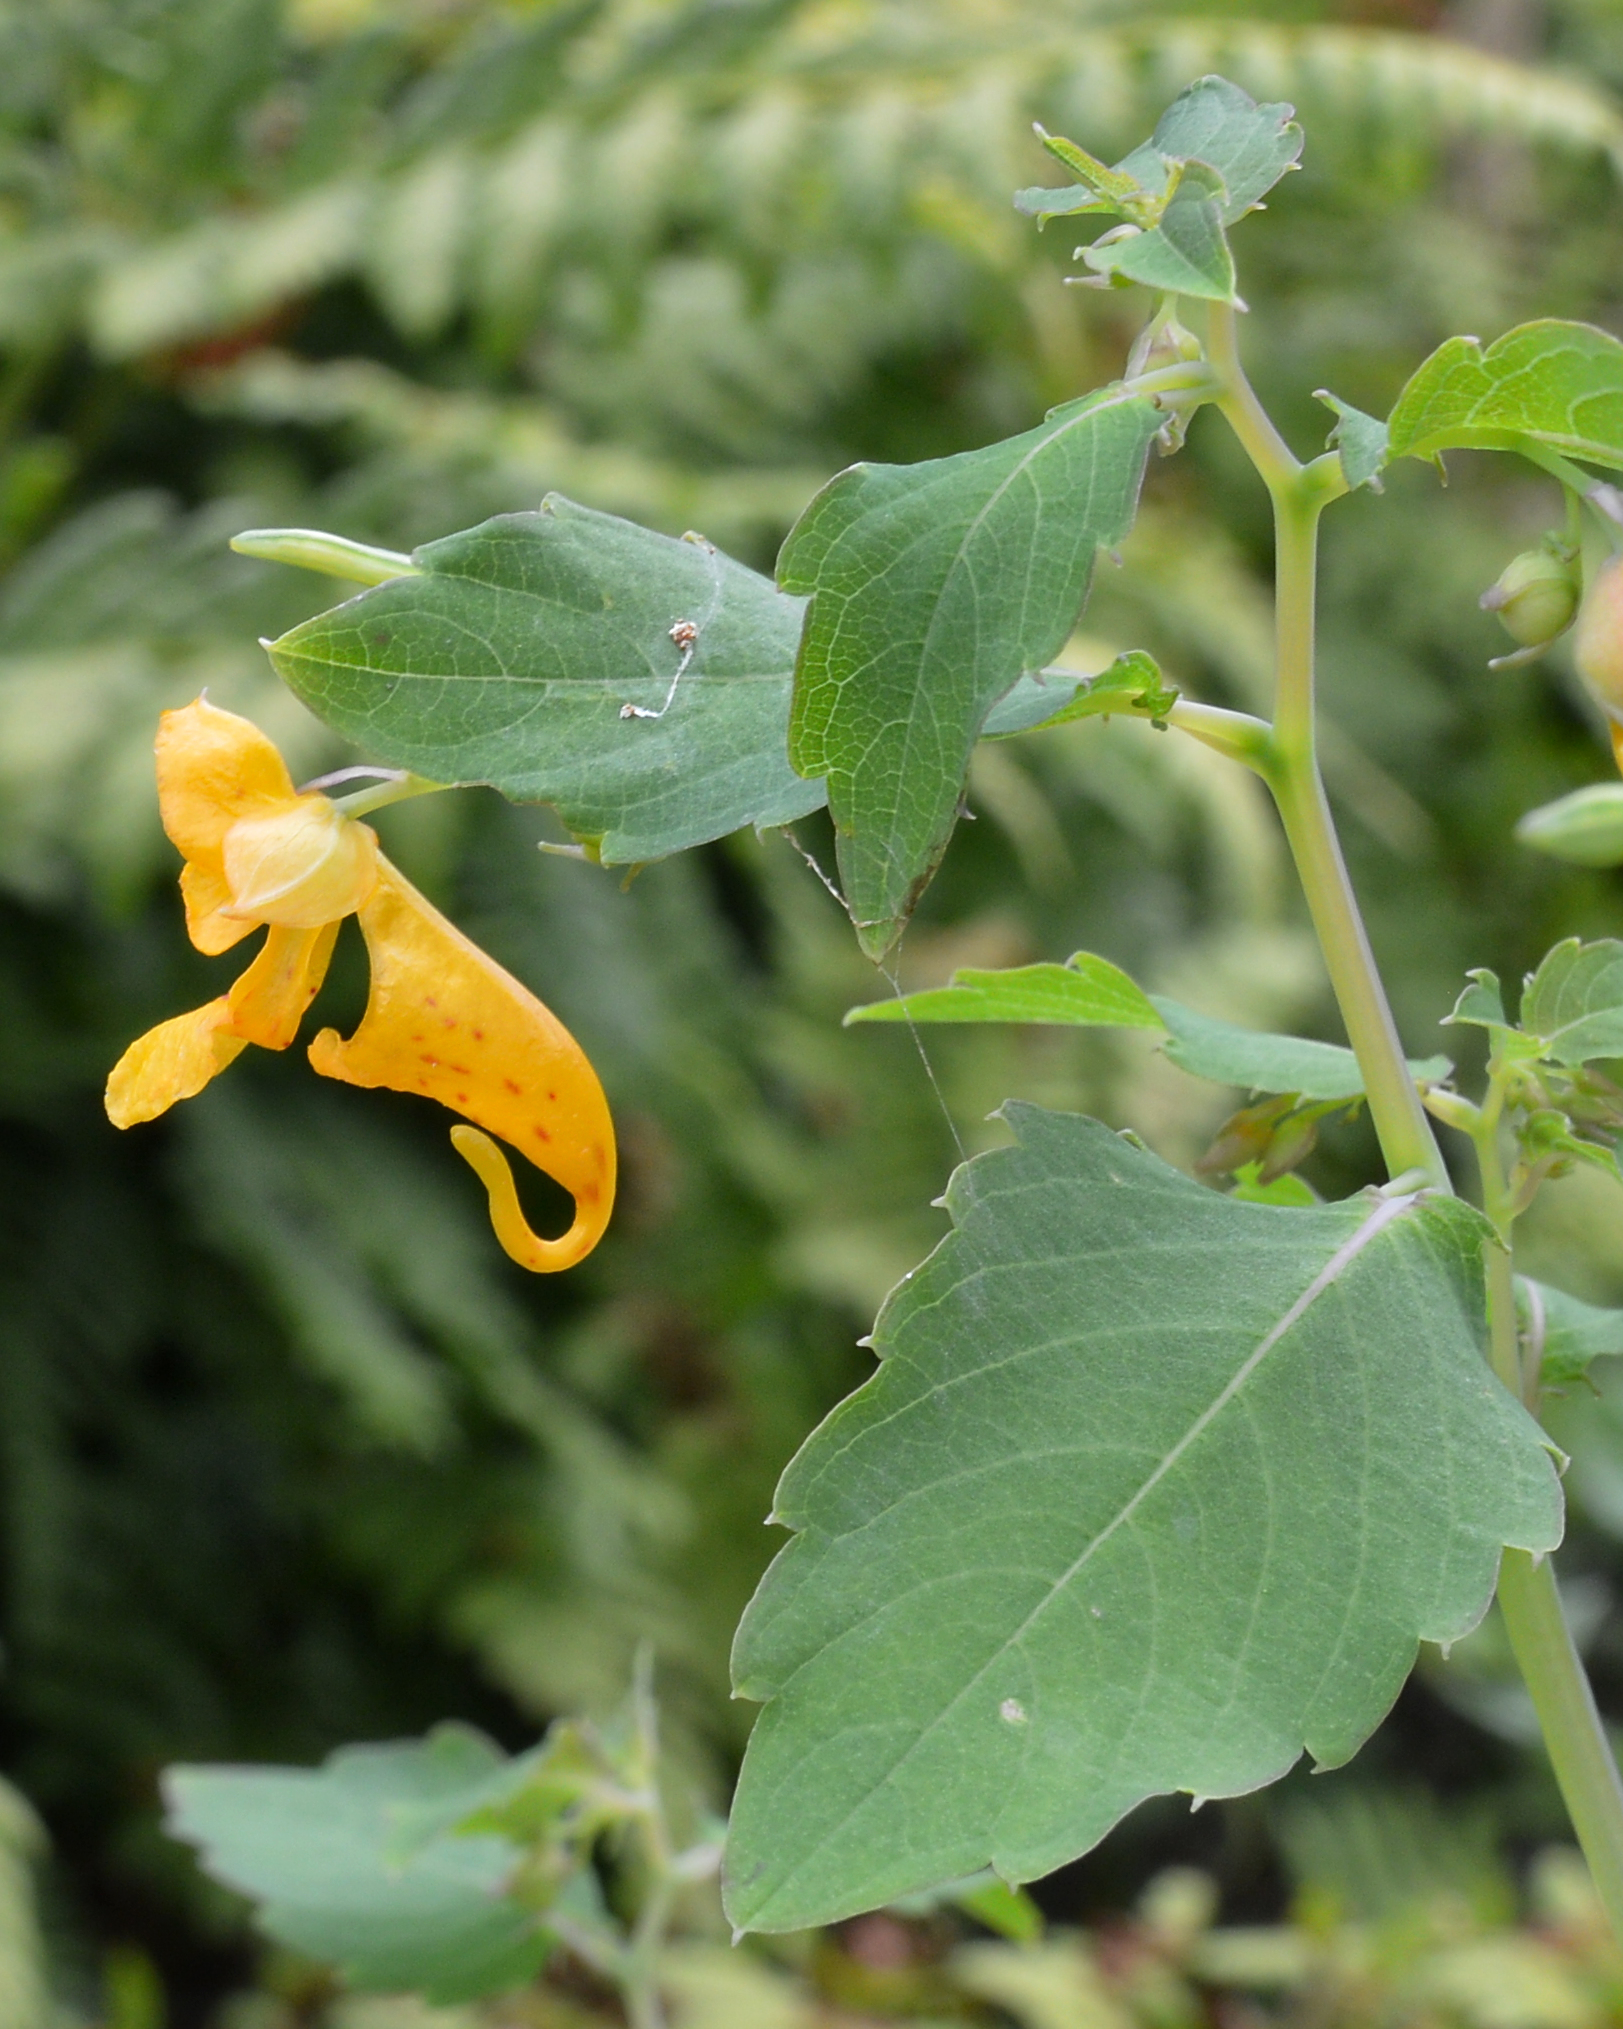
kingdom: Plantae
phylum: Tracheophyta
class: Magnoliopsida
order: Ericales
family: Balsaminaceae
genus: Impatiens
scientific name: Impatiens capensis
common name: Orange balsam
